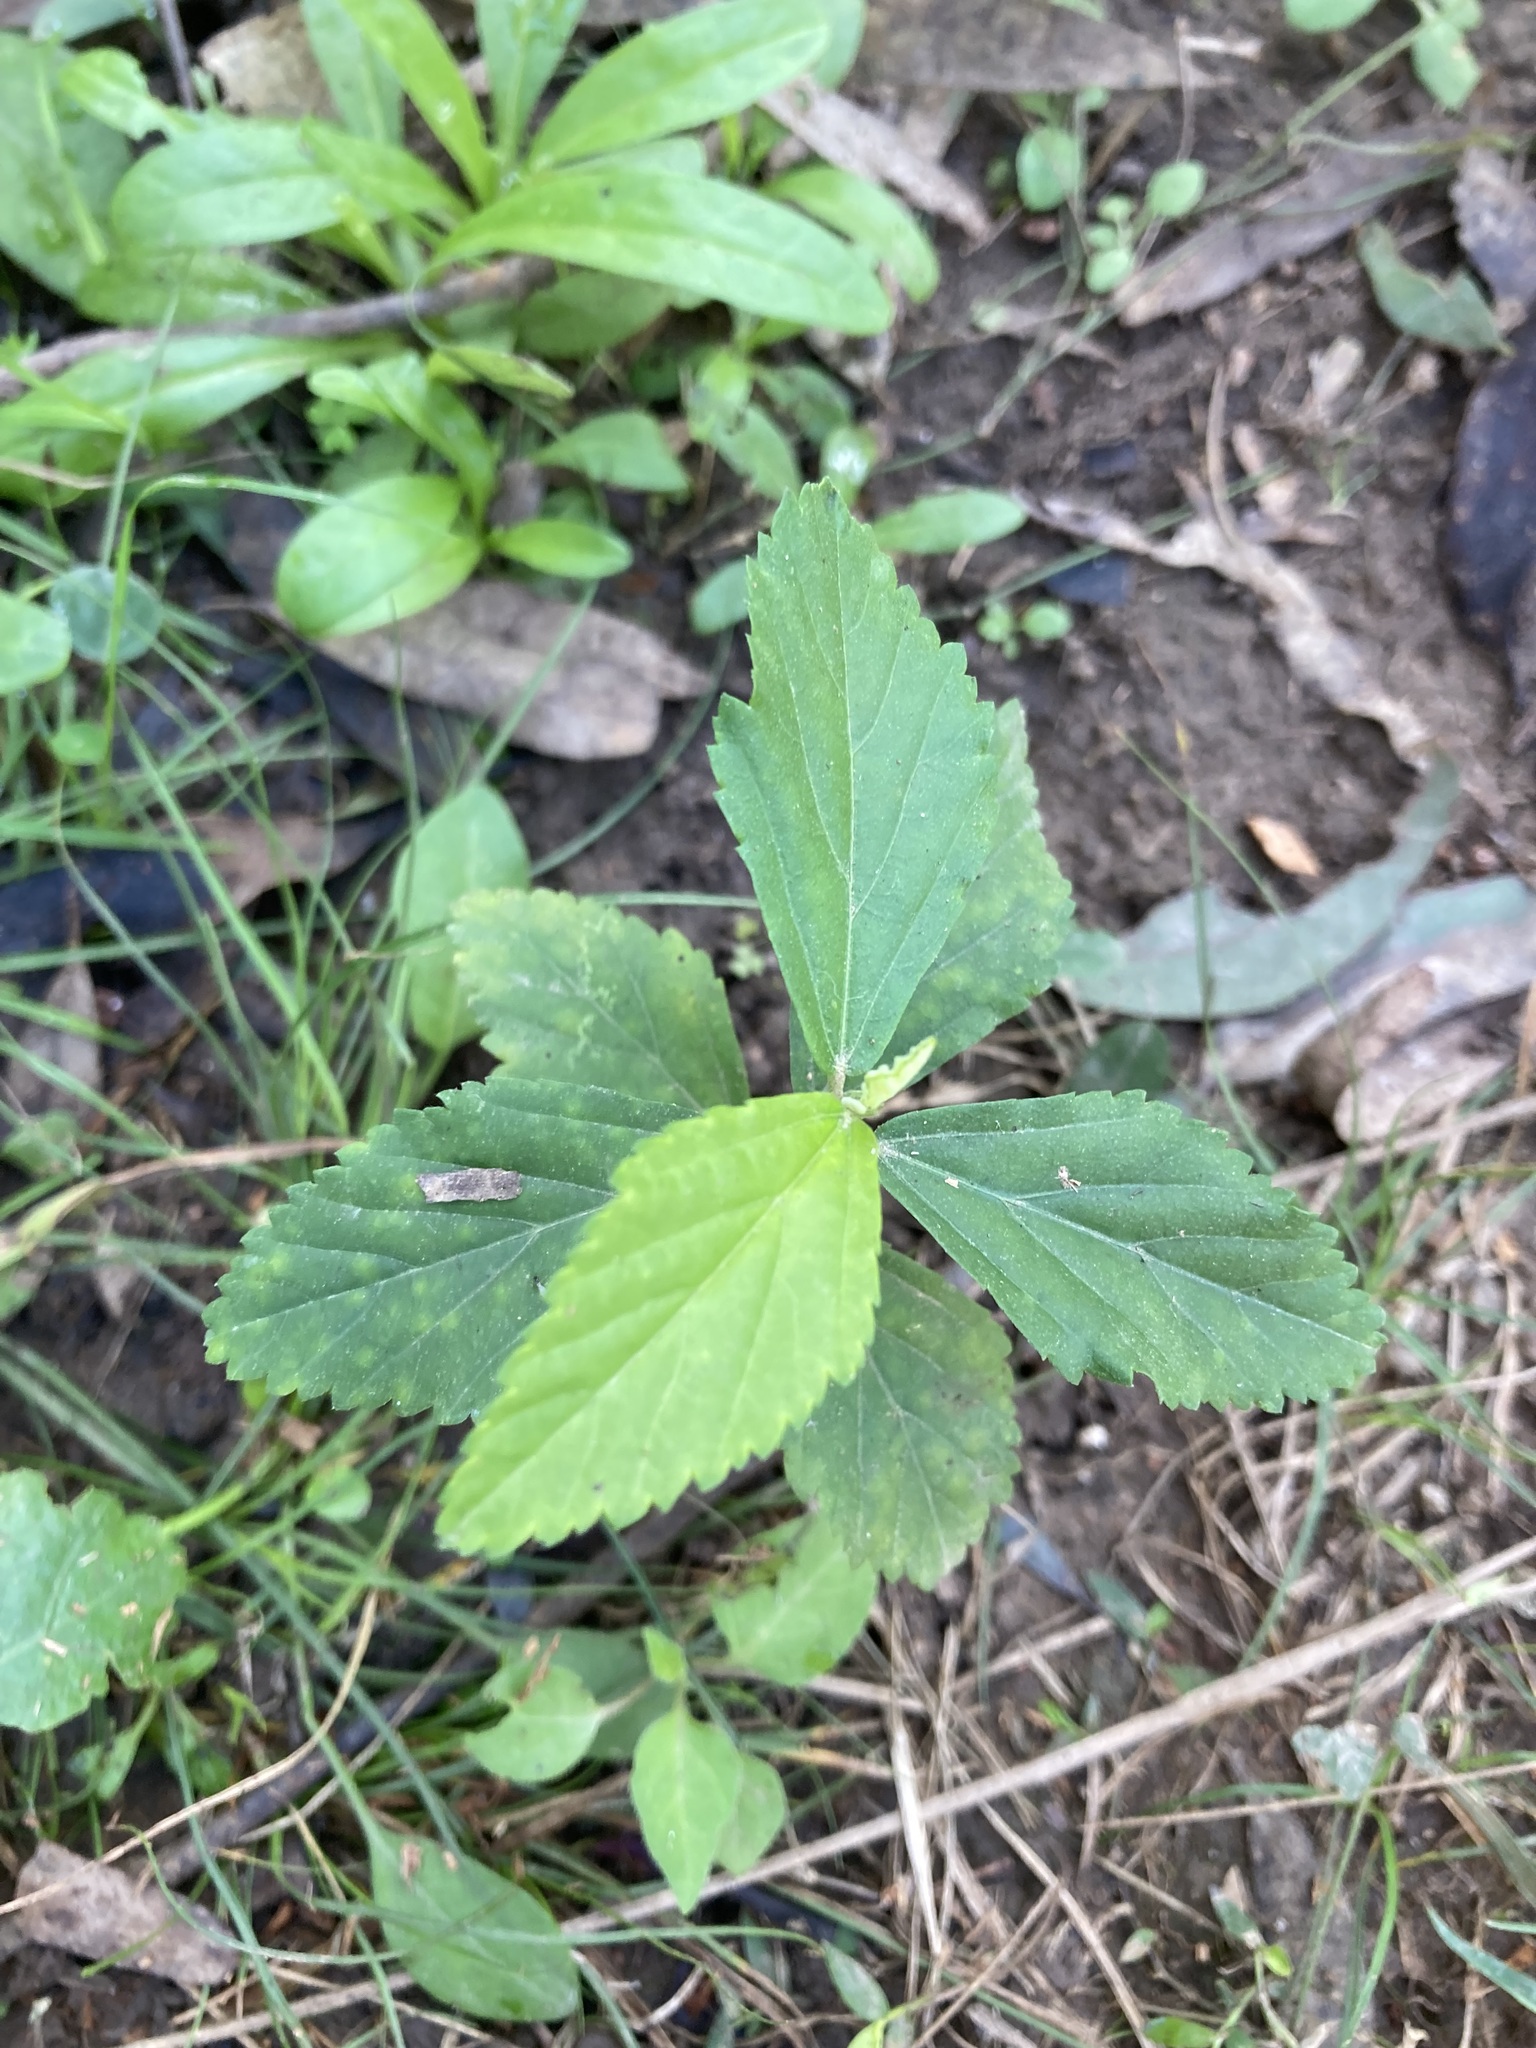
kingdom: Plantae
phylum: Tracheophyta
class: Magnoliopsida
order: Malvales
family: Malvaceae
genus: Sida
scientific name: Sida rhombifolia
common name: Queensland-hemp
